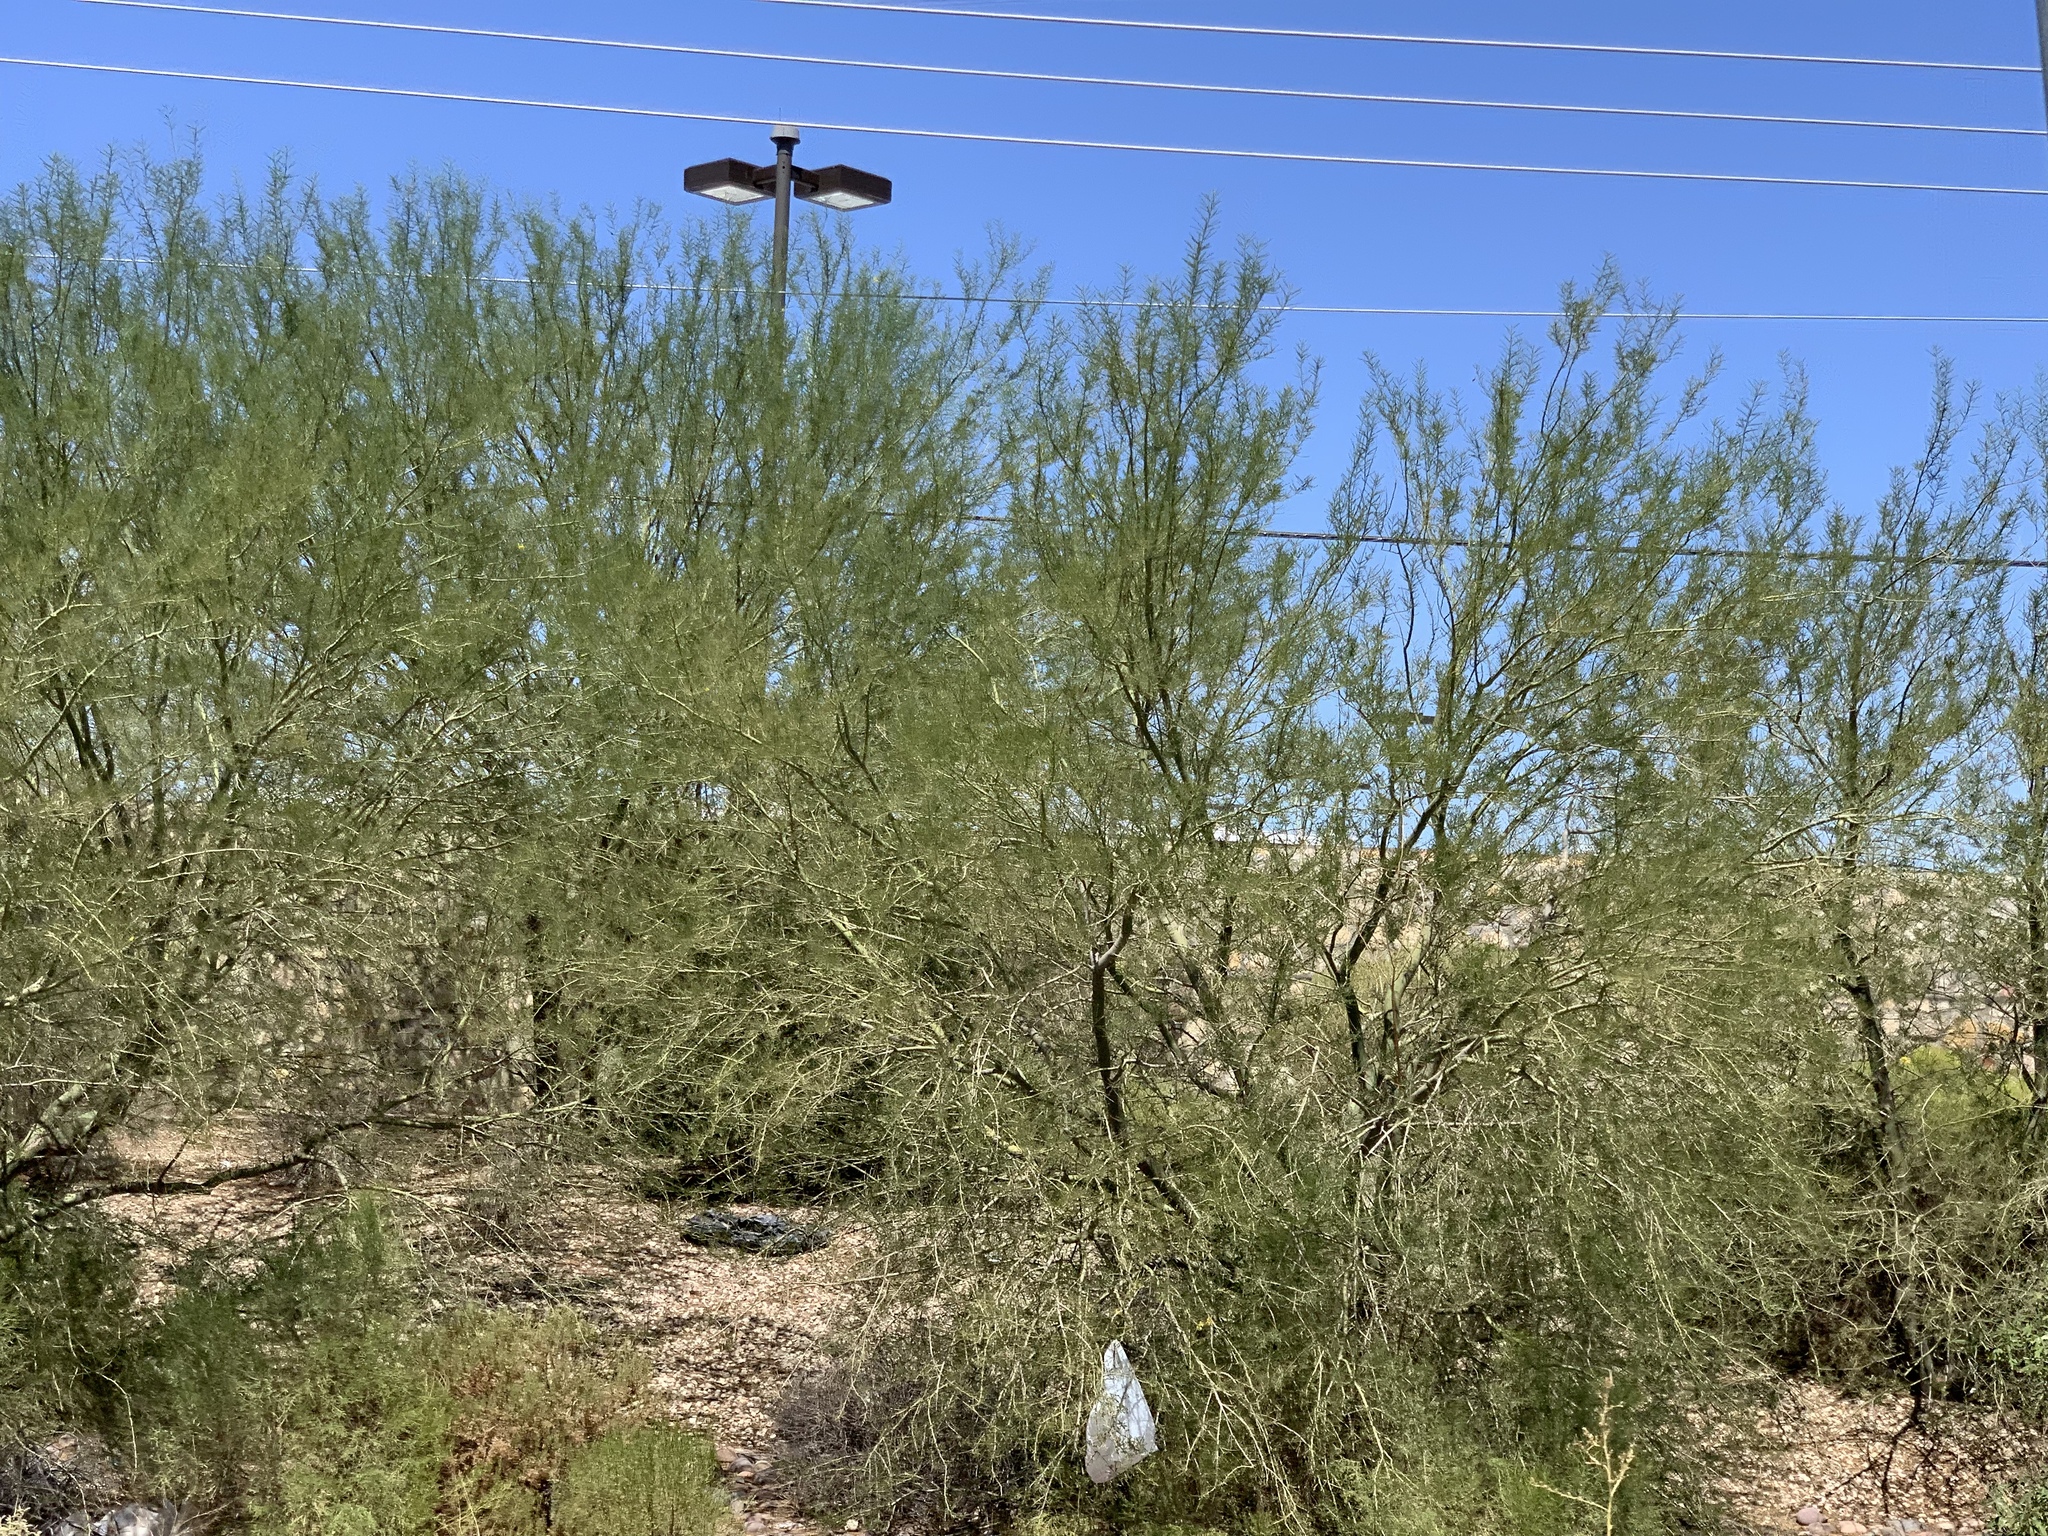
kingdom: Plantae
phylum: Tracheophyta
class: Magnoliopsida
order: Fabales
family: Fabaceae
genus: Parkinsonia
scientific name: Parkinsonia aculeata
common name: Jerusalem thorn
